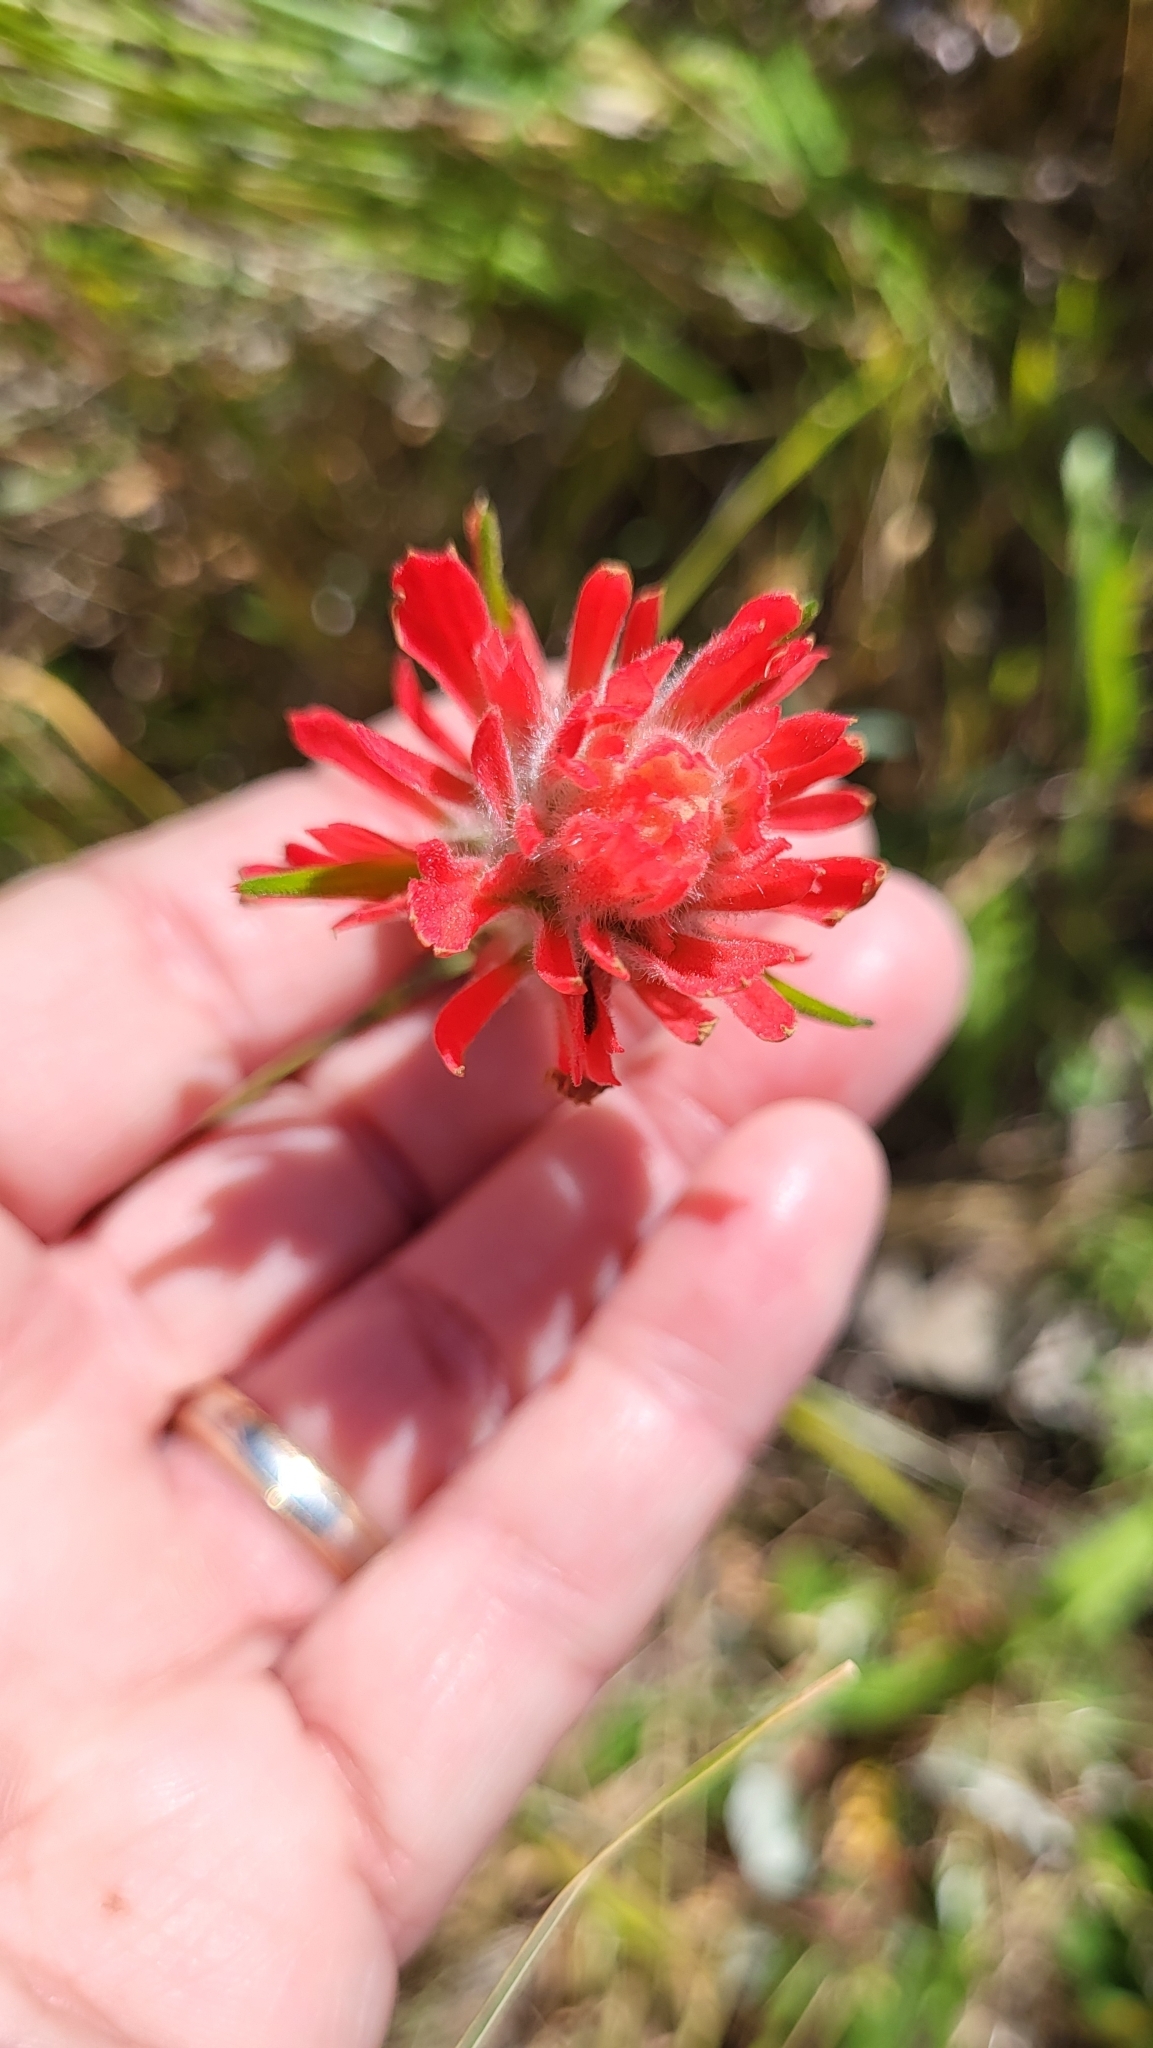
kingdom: Plantae
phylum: Tracheophyta
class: Magnoliopsida
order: Lamiales
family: Orobanchaceae
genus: Castilleja
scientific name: Castilleja affinis
